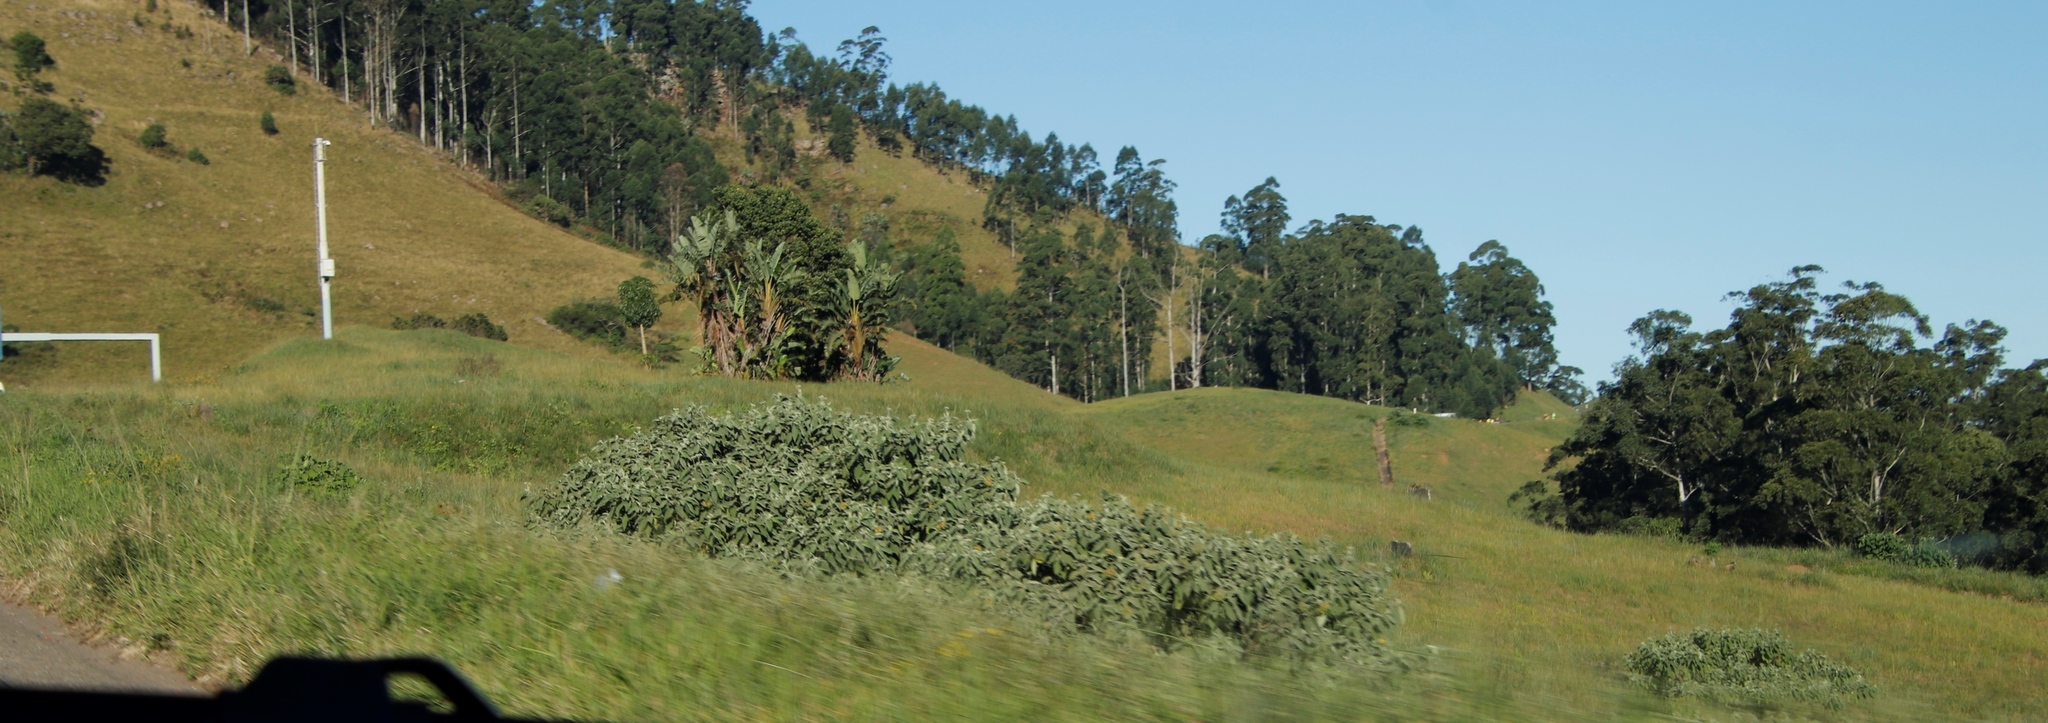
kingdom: Plantae
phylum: Tracheophyta
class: Magnoliopsida
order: Solanales
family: Solanaceae
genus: Solanum
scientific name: Solanum mauritianum
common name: Earleaf nightshade
